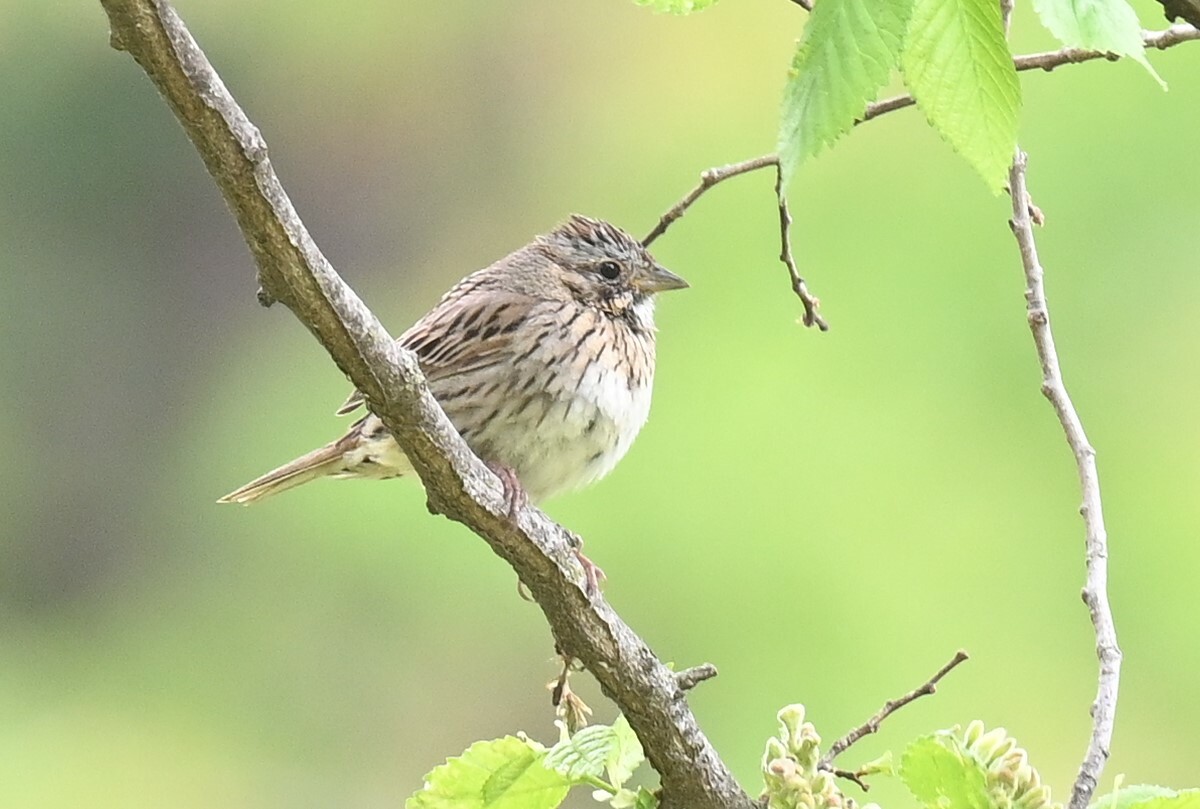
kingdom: Animalia
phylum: Chordata
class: Aves
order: Passeriformes
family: Passerellidae
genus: Melospiza
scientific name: Melospiza lincolnii
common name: Lincoln's sparrow
